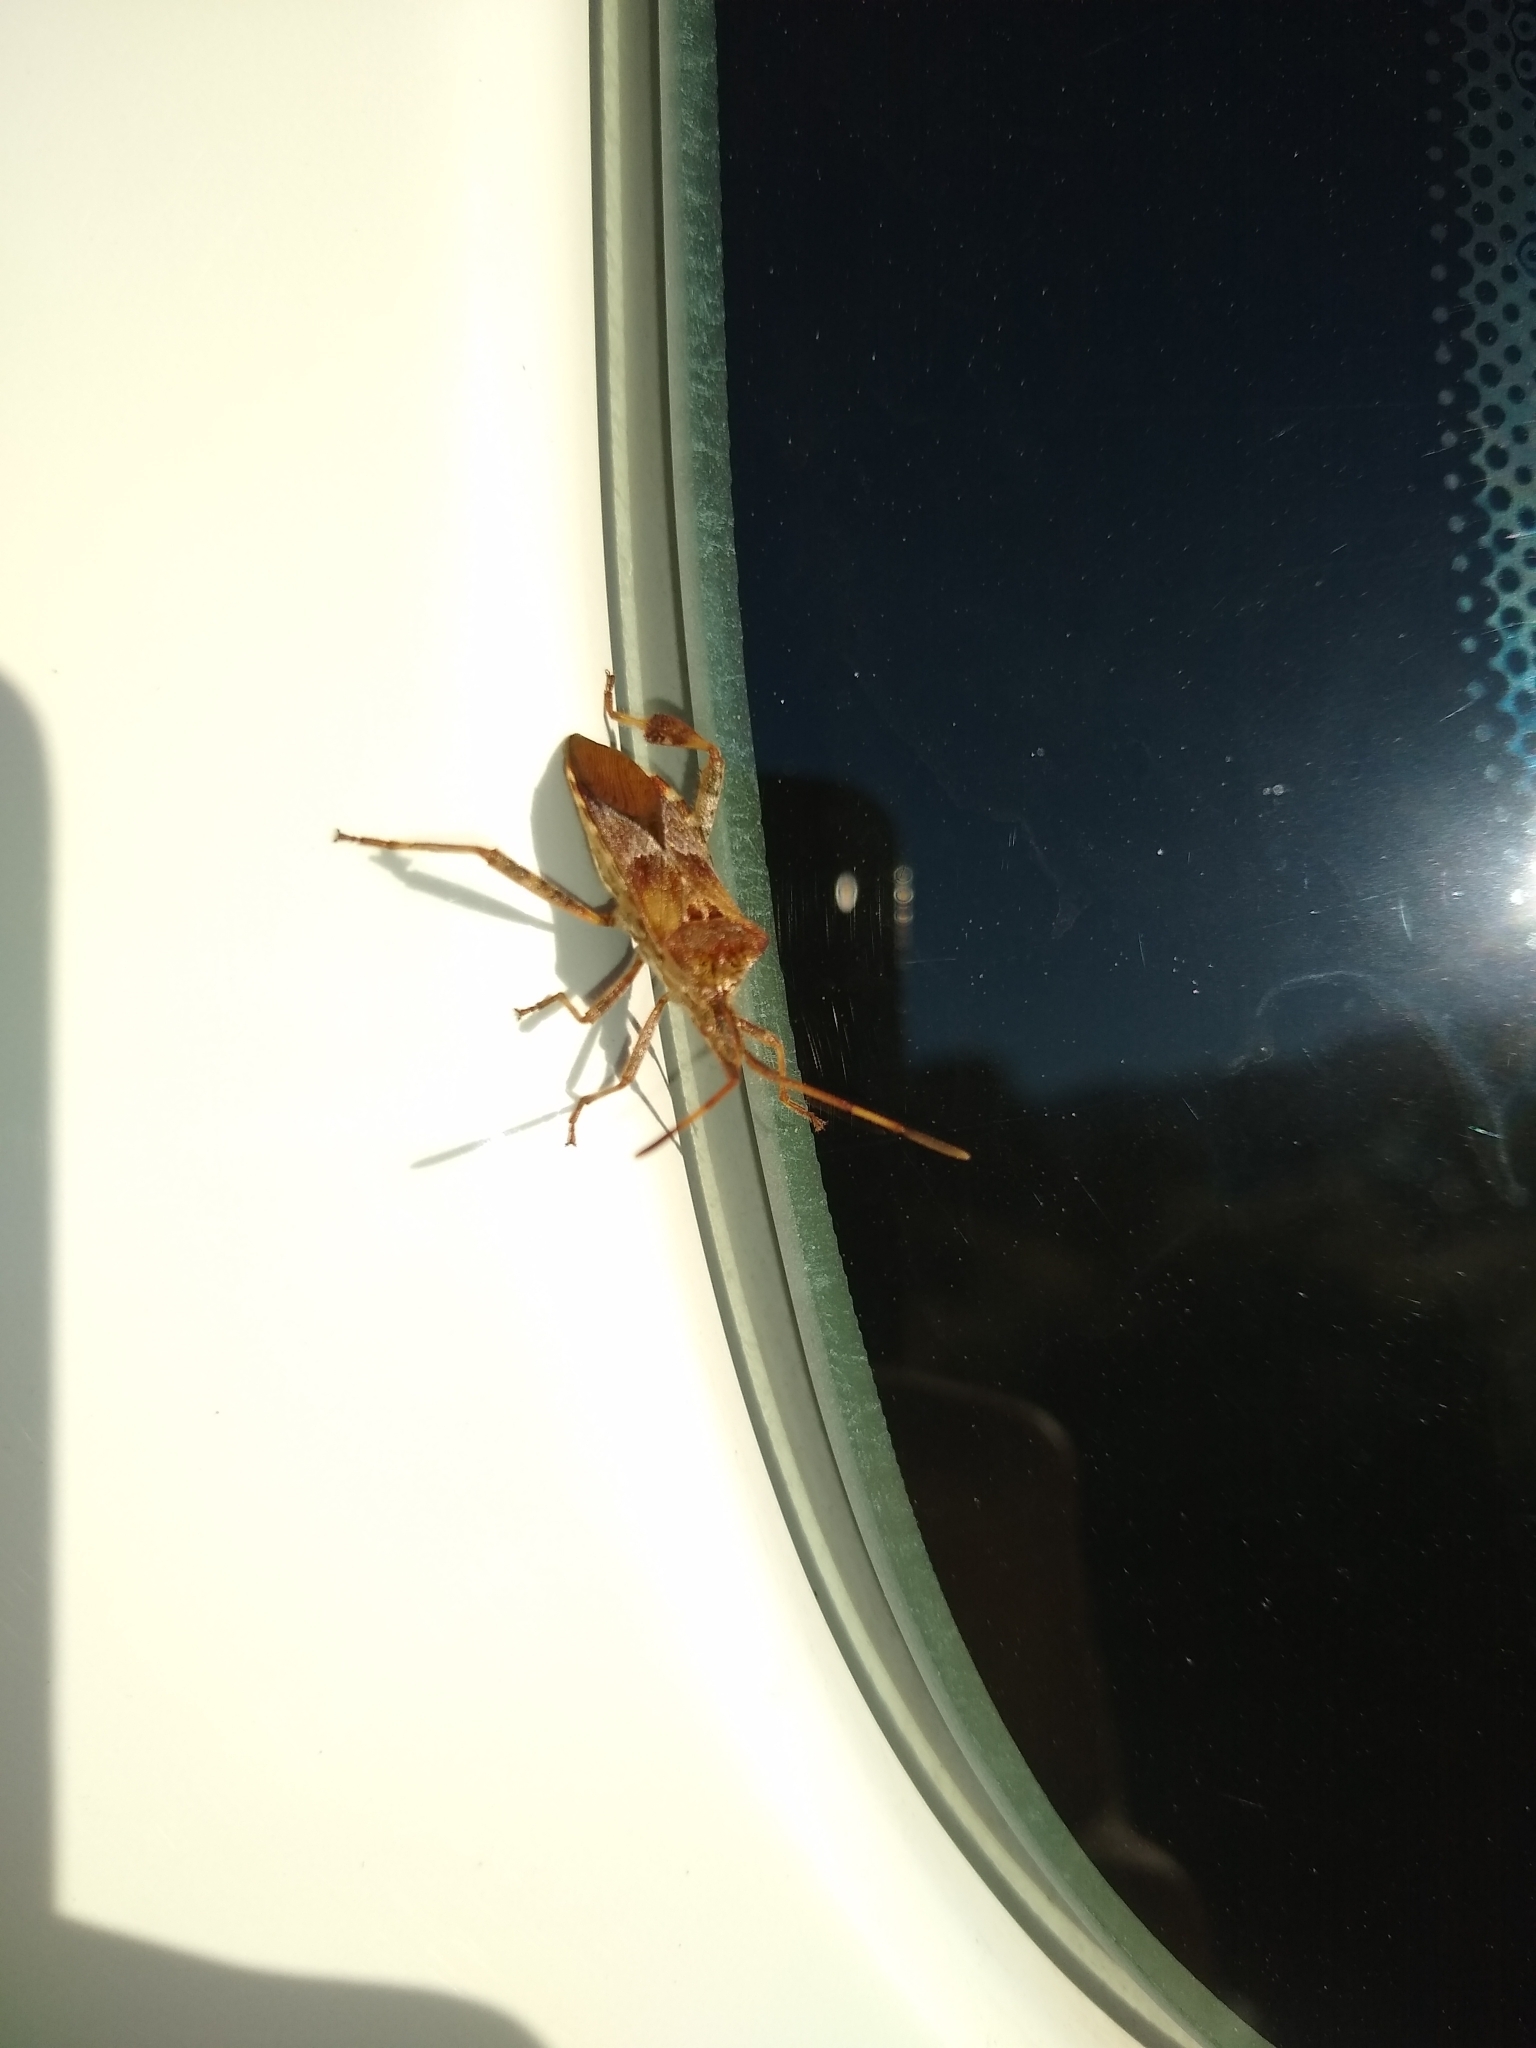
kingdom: Animalia
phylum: Arthropoda
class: Insecta
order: Hemiptera
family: Coreidae
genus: Leptoglossus
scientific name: Leptoglossus occidentalis
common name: Western conifer-seed bug
